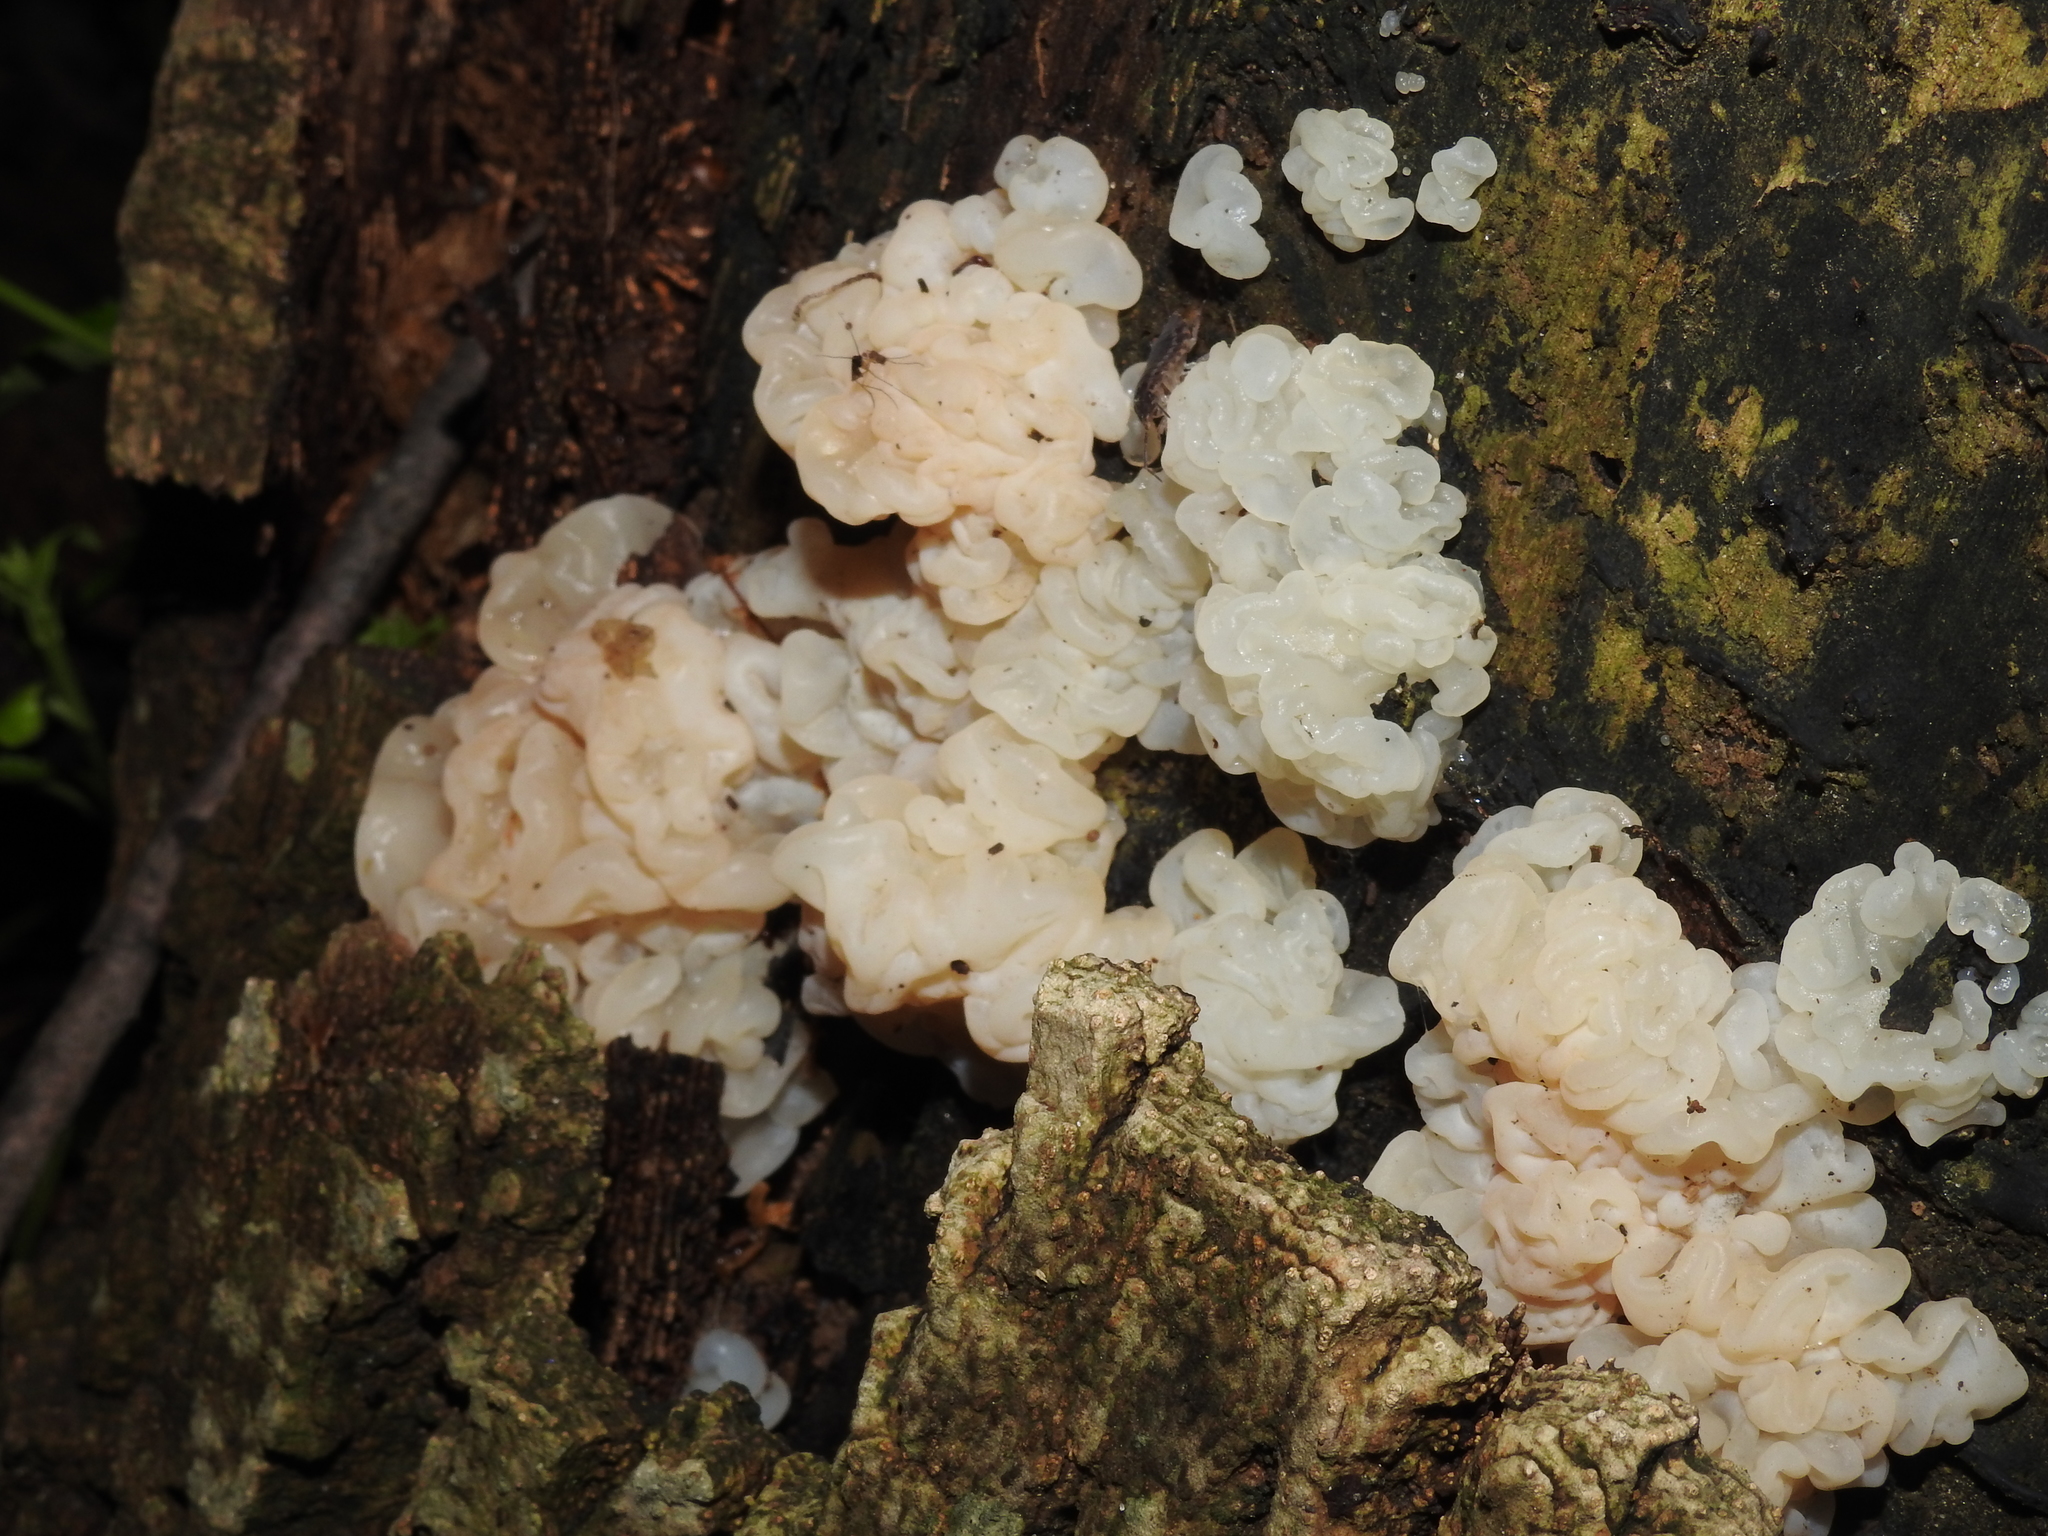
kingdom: Fungi
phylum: Basidiomycota
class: Agaricomycetes
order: Auriculariales
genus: Ductifera
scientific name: Ductifera pululahuana
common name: White jelly fungus
